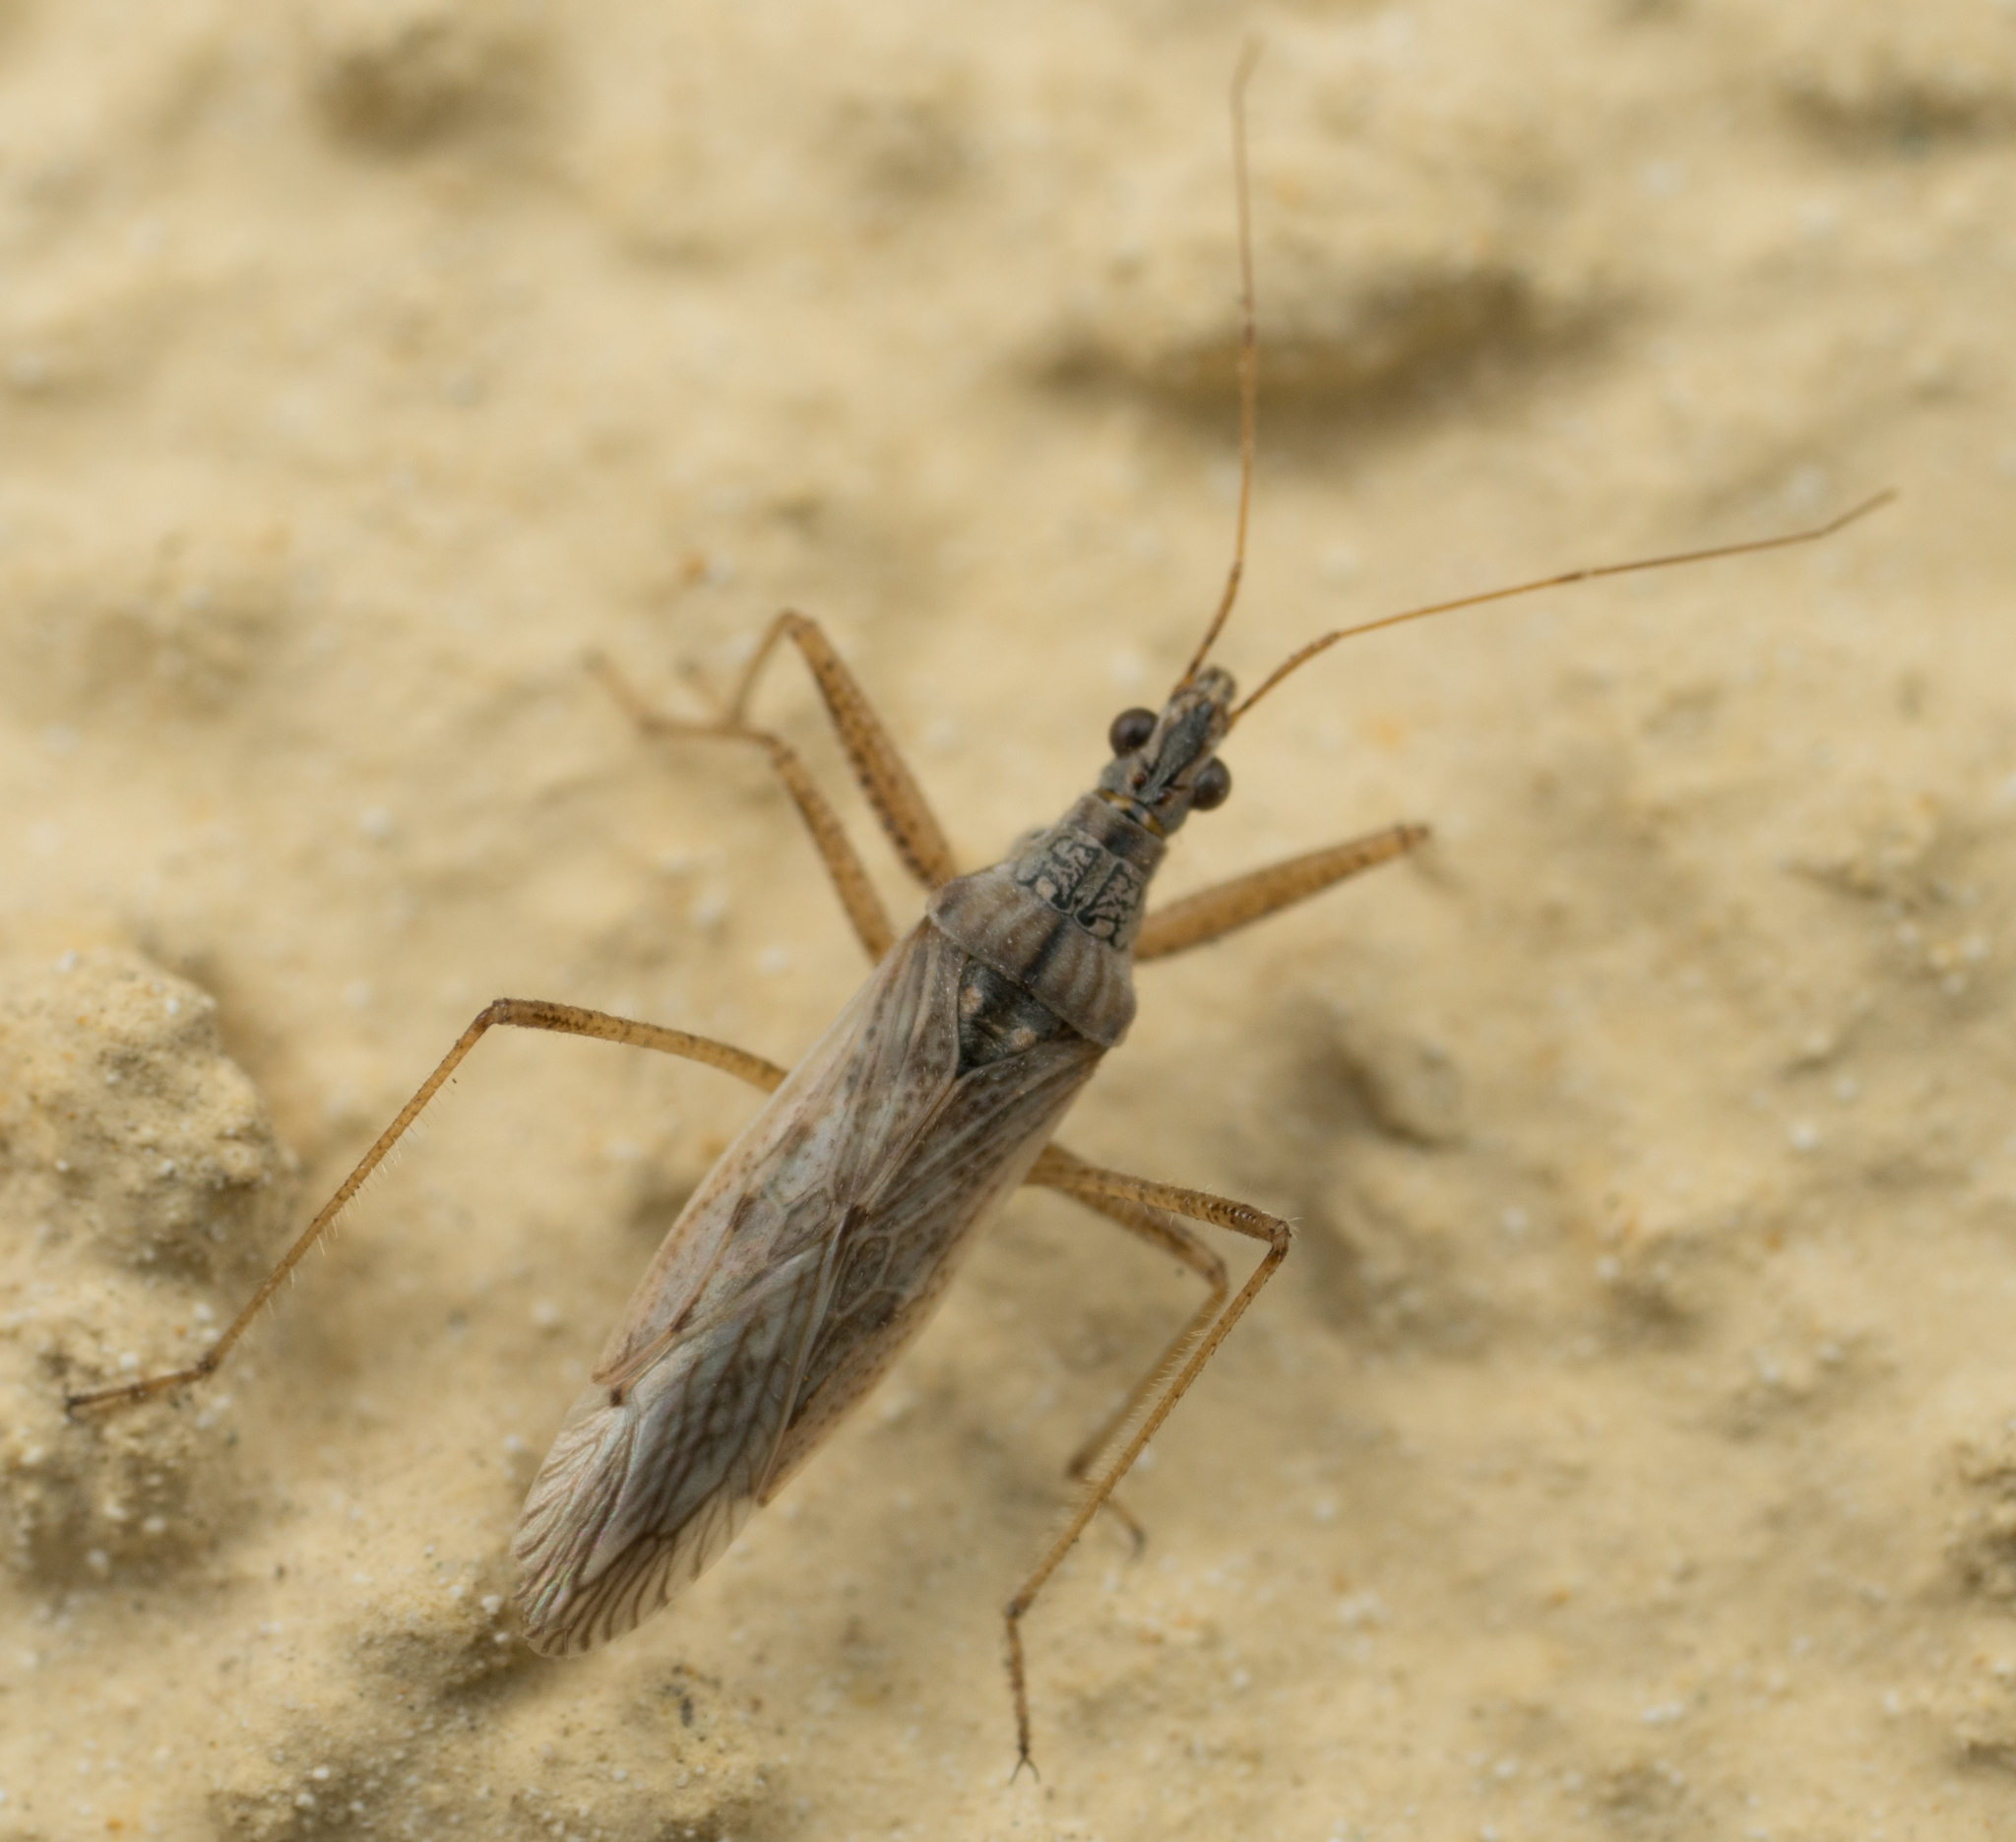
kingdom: Animalia
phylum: Arthropoda
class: Insecta
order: Hemiptera
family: Nabidae
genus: Nabis
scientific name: Nabis americoferus
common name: Common damsel bug
